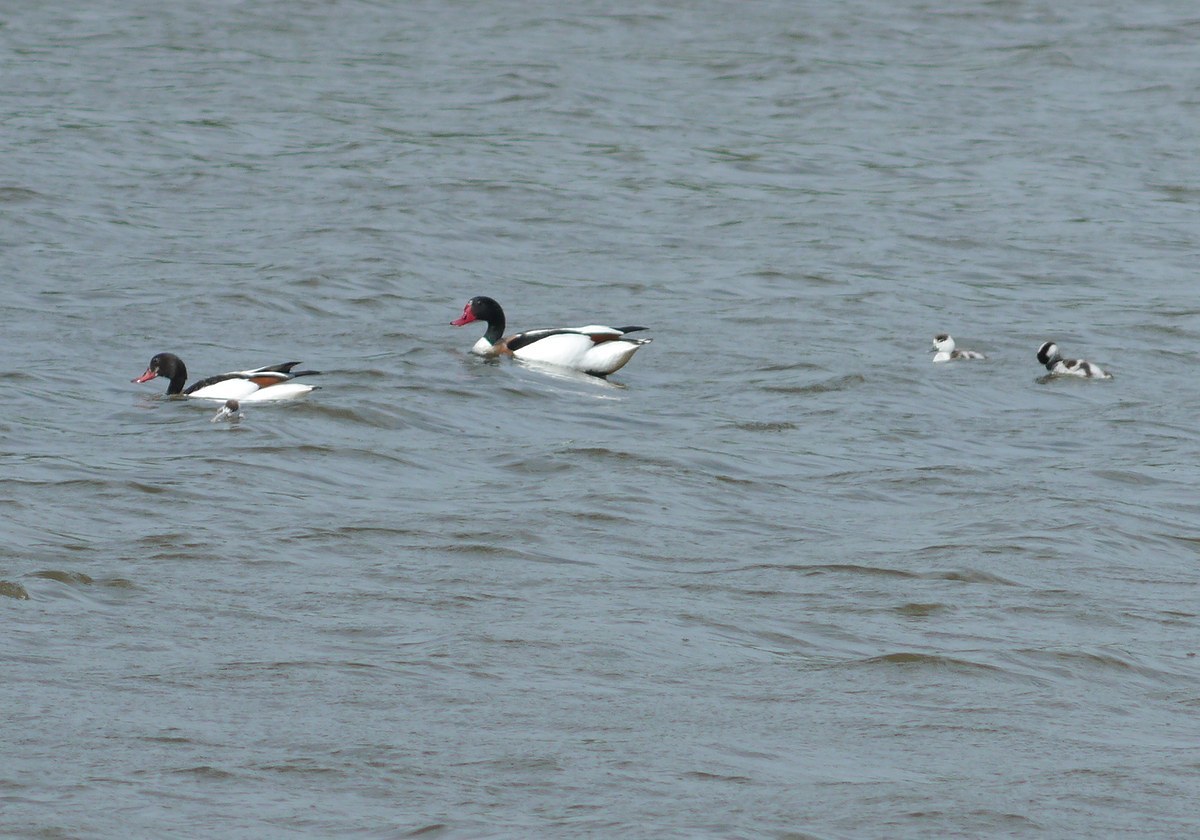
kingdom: Animalia
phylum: Chordata
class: Aves
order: Anseriformes
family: Anatidae
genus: Tadorna
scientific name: Tadorna tadorna
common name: Common shelduck
